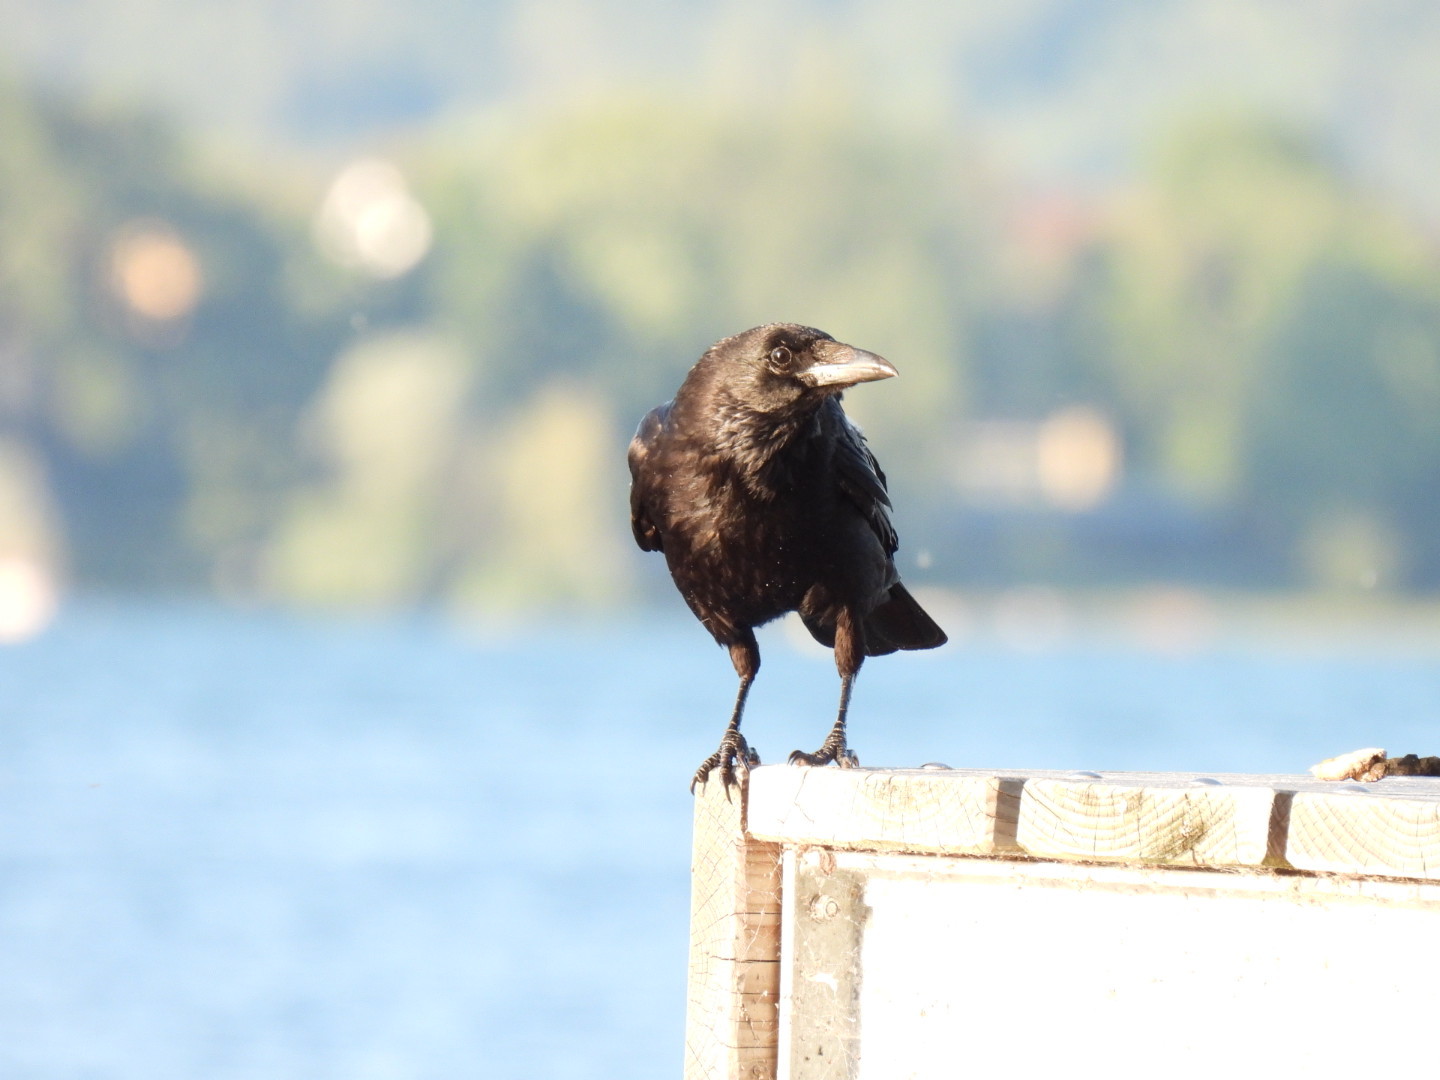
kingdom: Animalia
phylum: Chordata
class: Aves
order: Passeriformes
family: Corvidae
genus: Corvus
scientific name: Corvus corone
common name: Carrion crow
